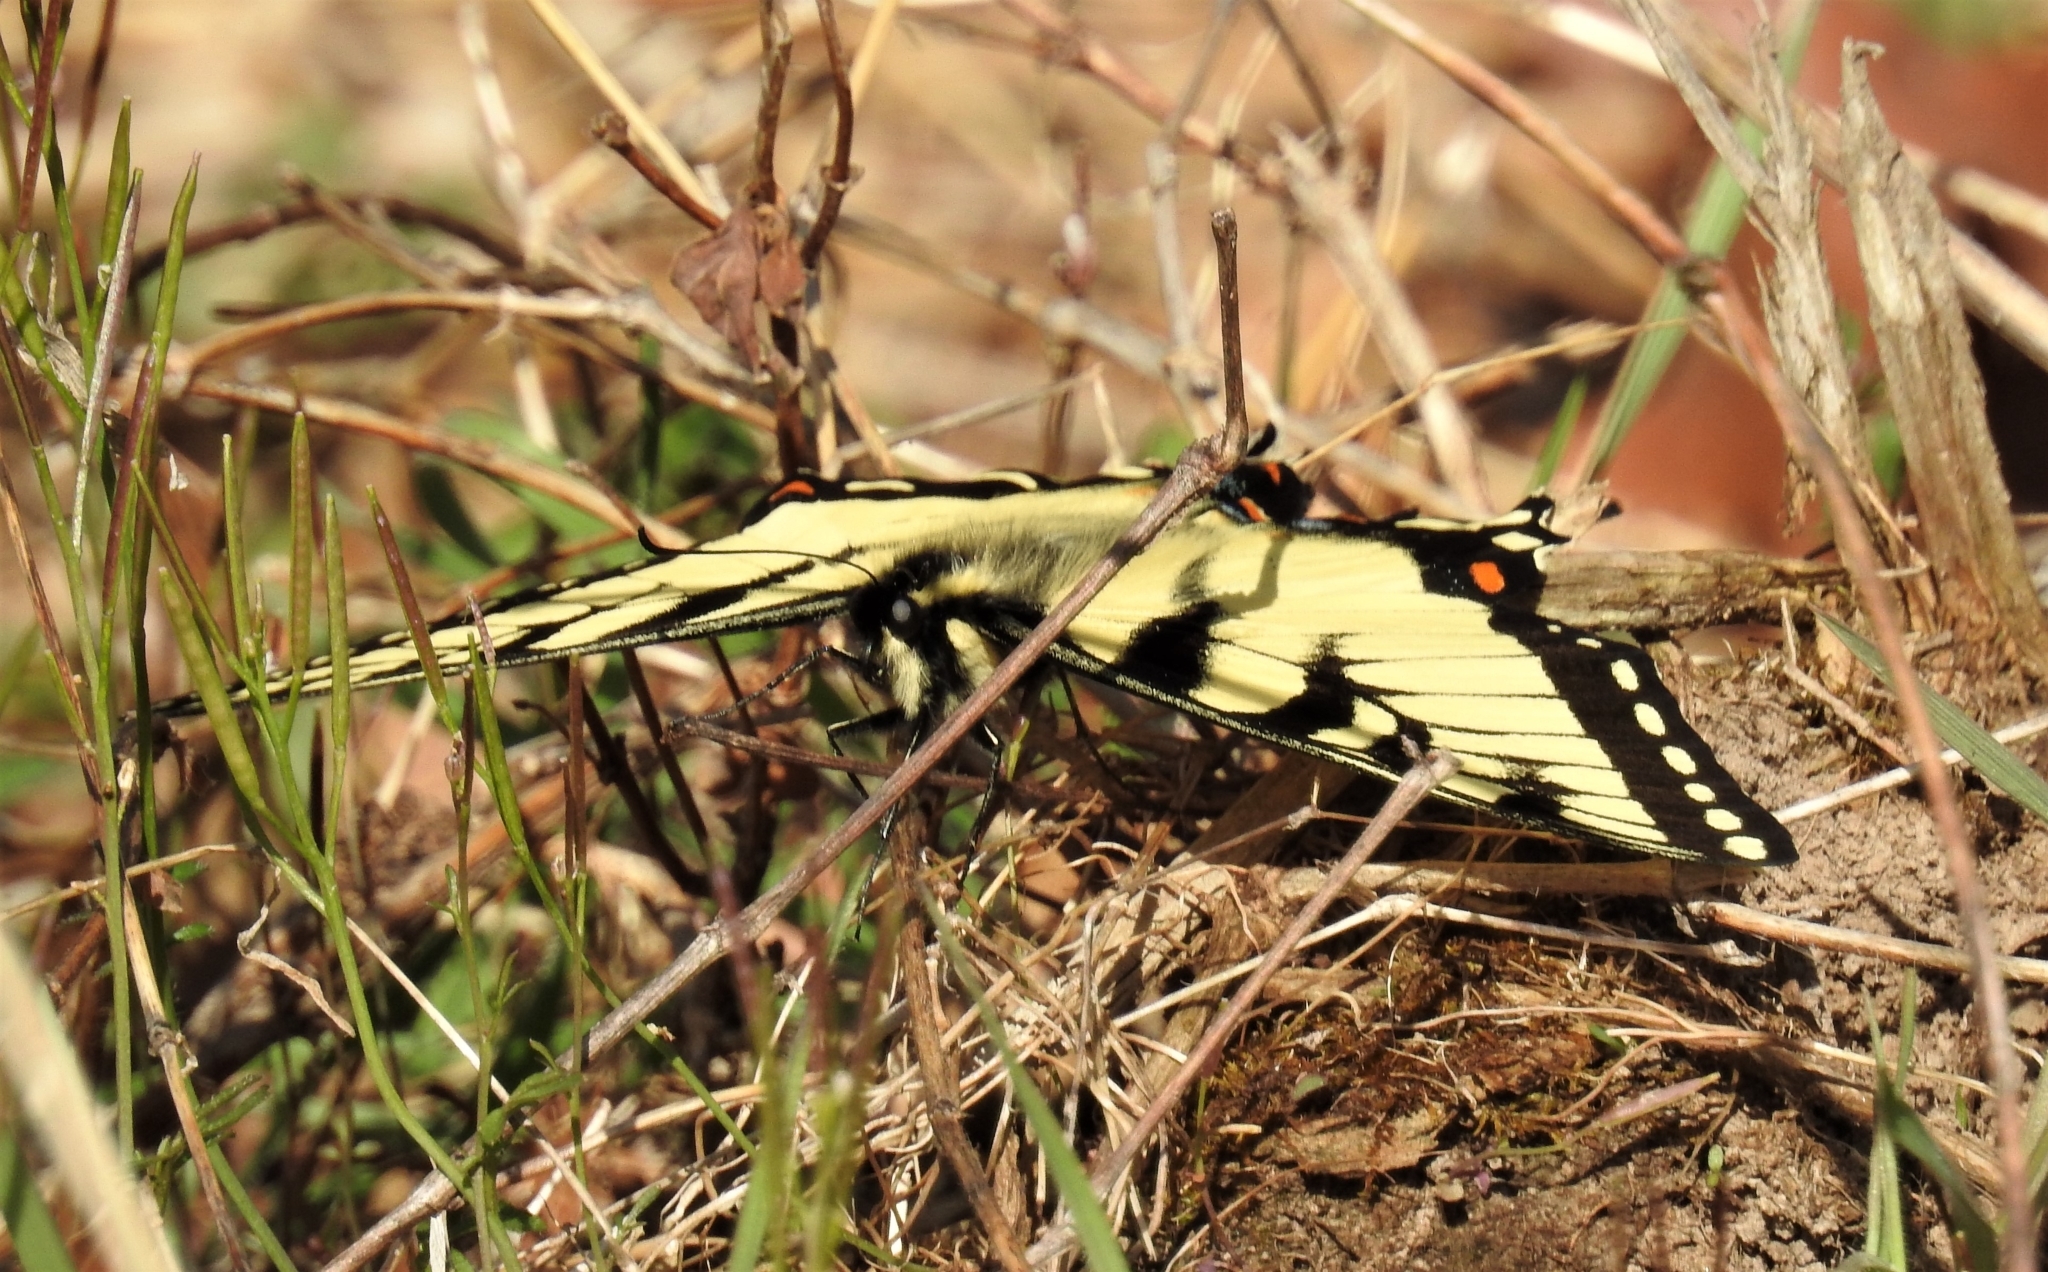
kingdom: Animalia
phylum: Arthropoda
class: Insecta
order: Lepidoptera
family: Papilionidae
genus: Papilio
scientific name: Papilio glaucus
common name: Tiger swallowtail
